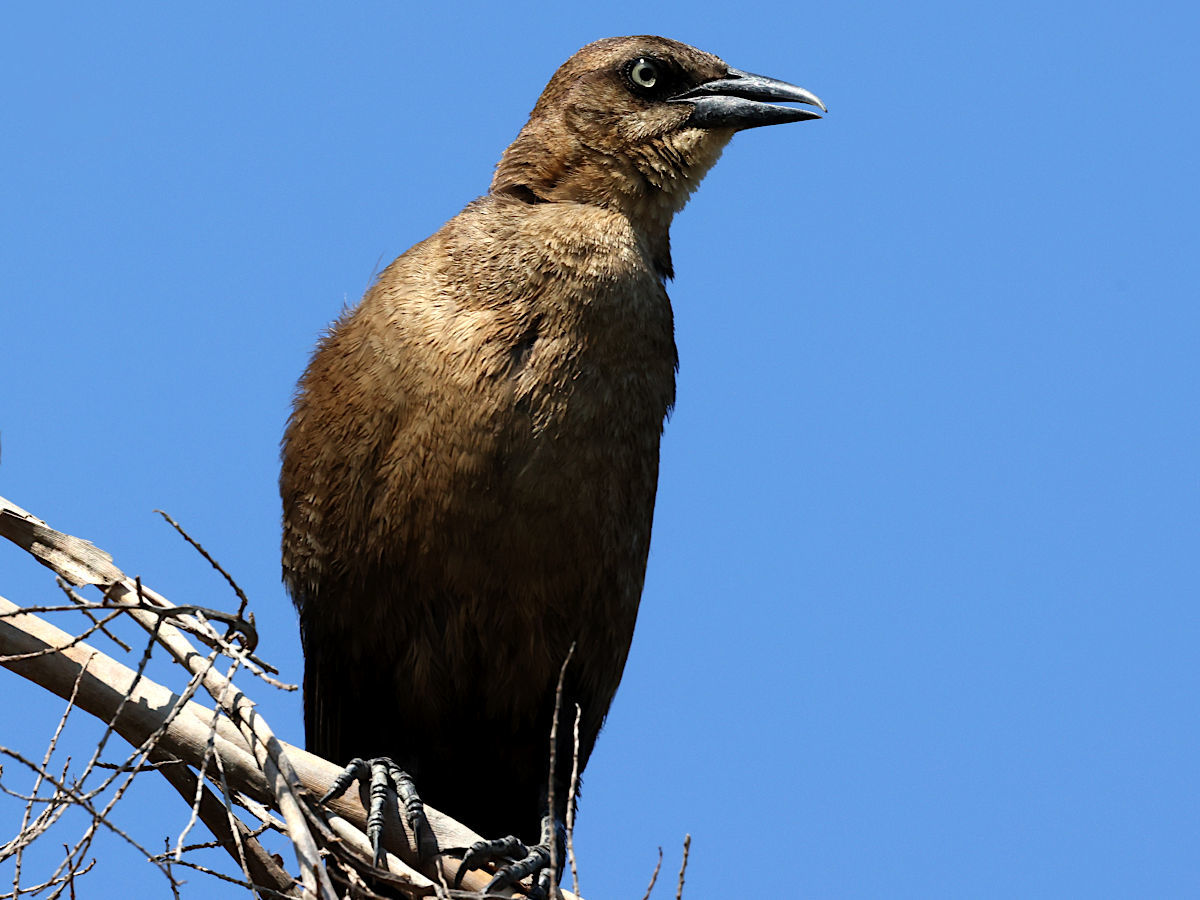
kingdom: Animalia
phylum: Chordata
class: Aves
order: Passeriformes
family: Icteridae
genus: Quiscalus
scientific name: Quiscalus major
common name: Boat-tailed grackle
